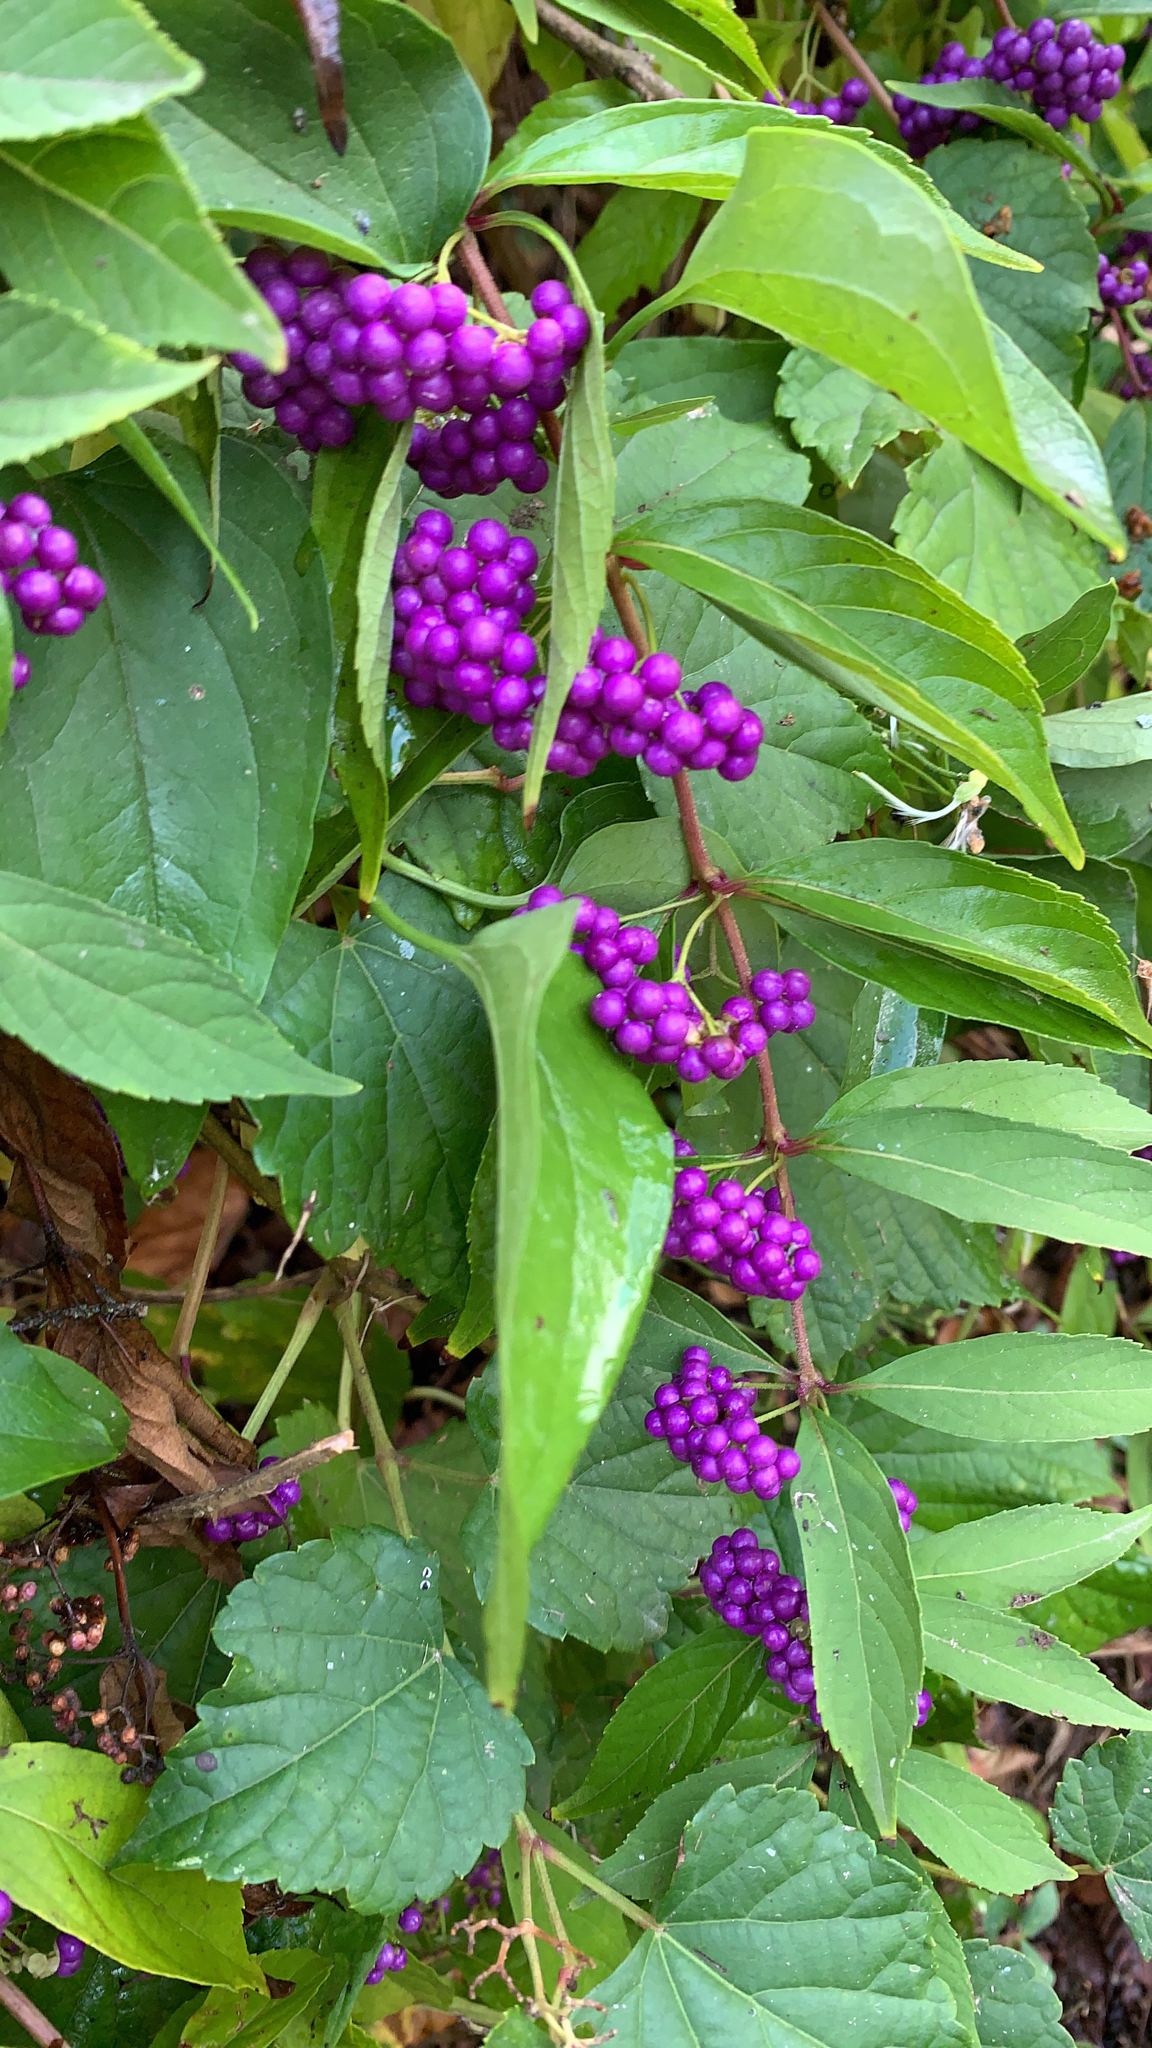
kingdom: Plantae
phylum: Tracheophyta
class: Magnoliopsida
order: Lamiales
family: Lamiaceae
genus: Callicarpa
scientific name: Callicarpa dichotoma
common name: Purple beauty-berry
